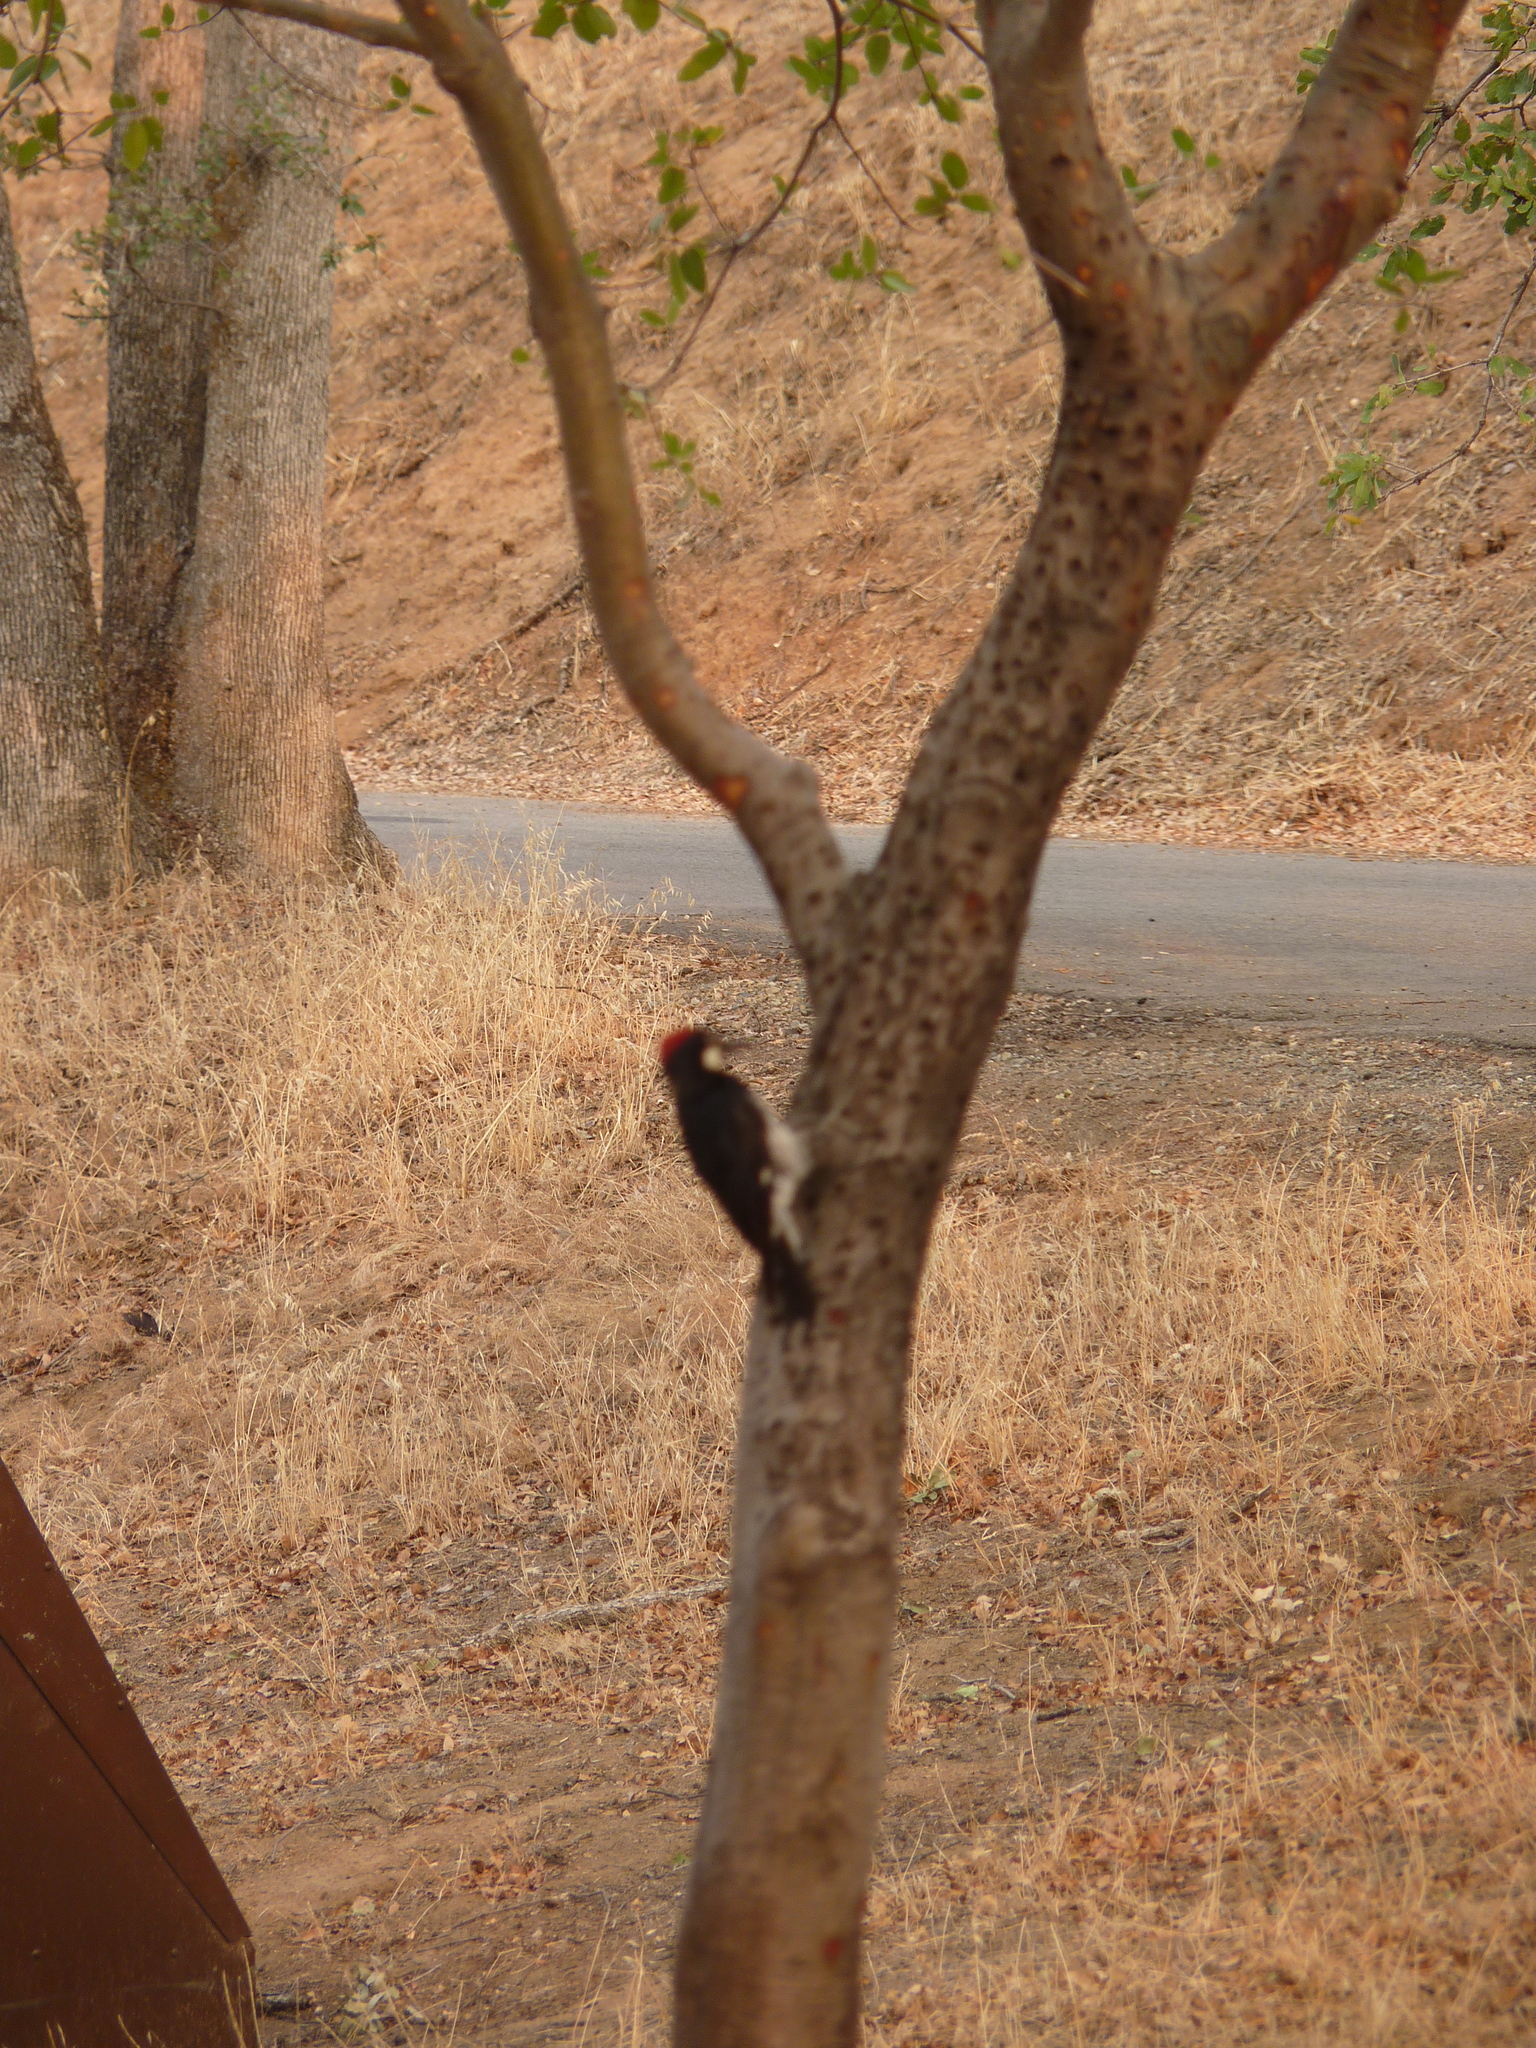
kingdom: Animalia
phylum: Chordata
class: Aves
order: Piciformes
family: Picidae
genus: Melanerpes
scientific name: Melanerpes formicivorus
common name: Acorn woodpecker
